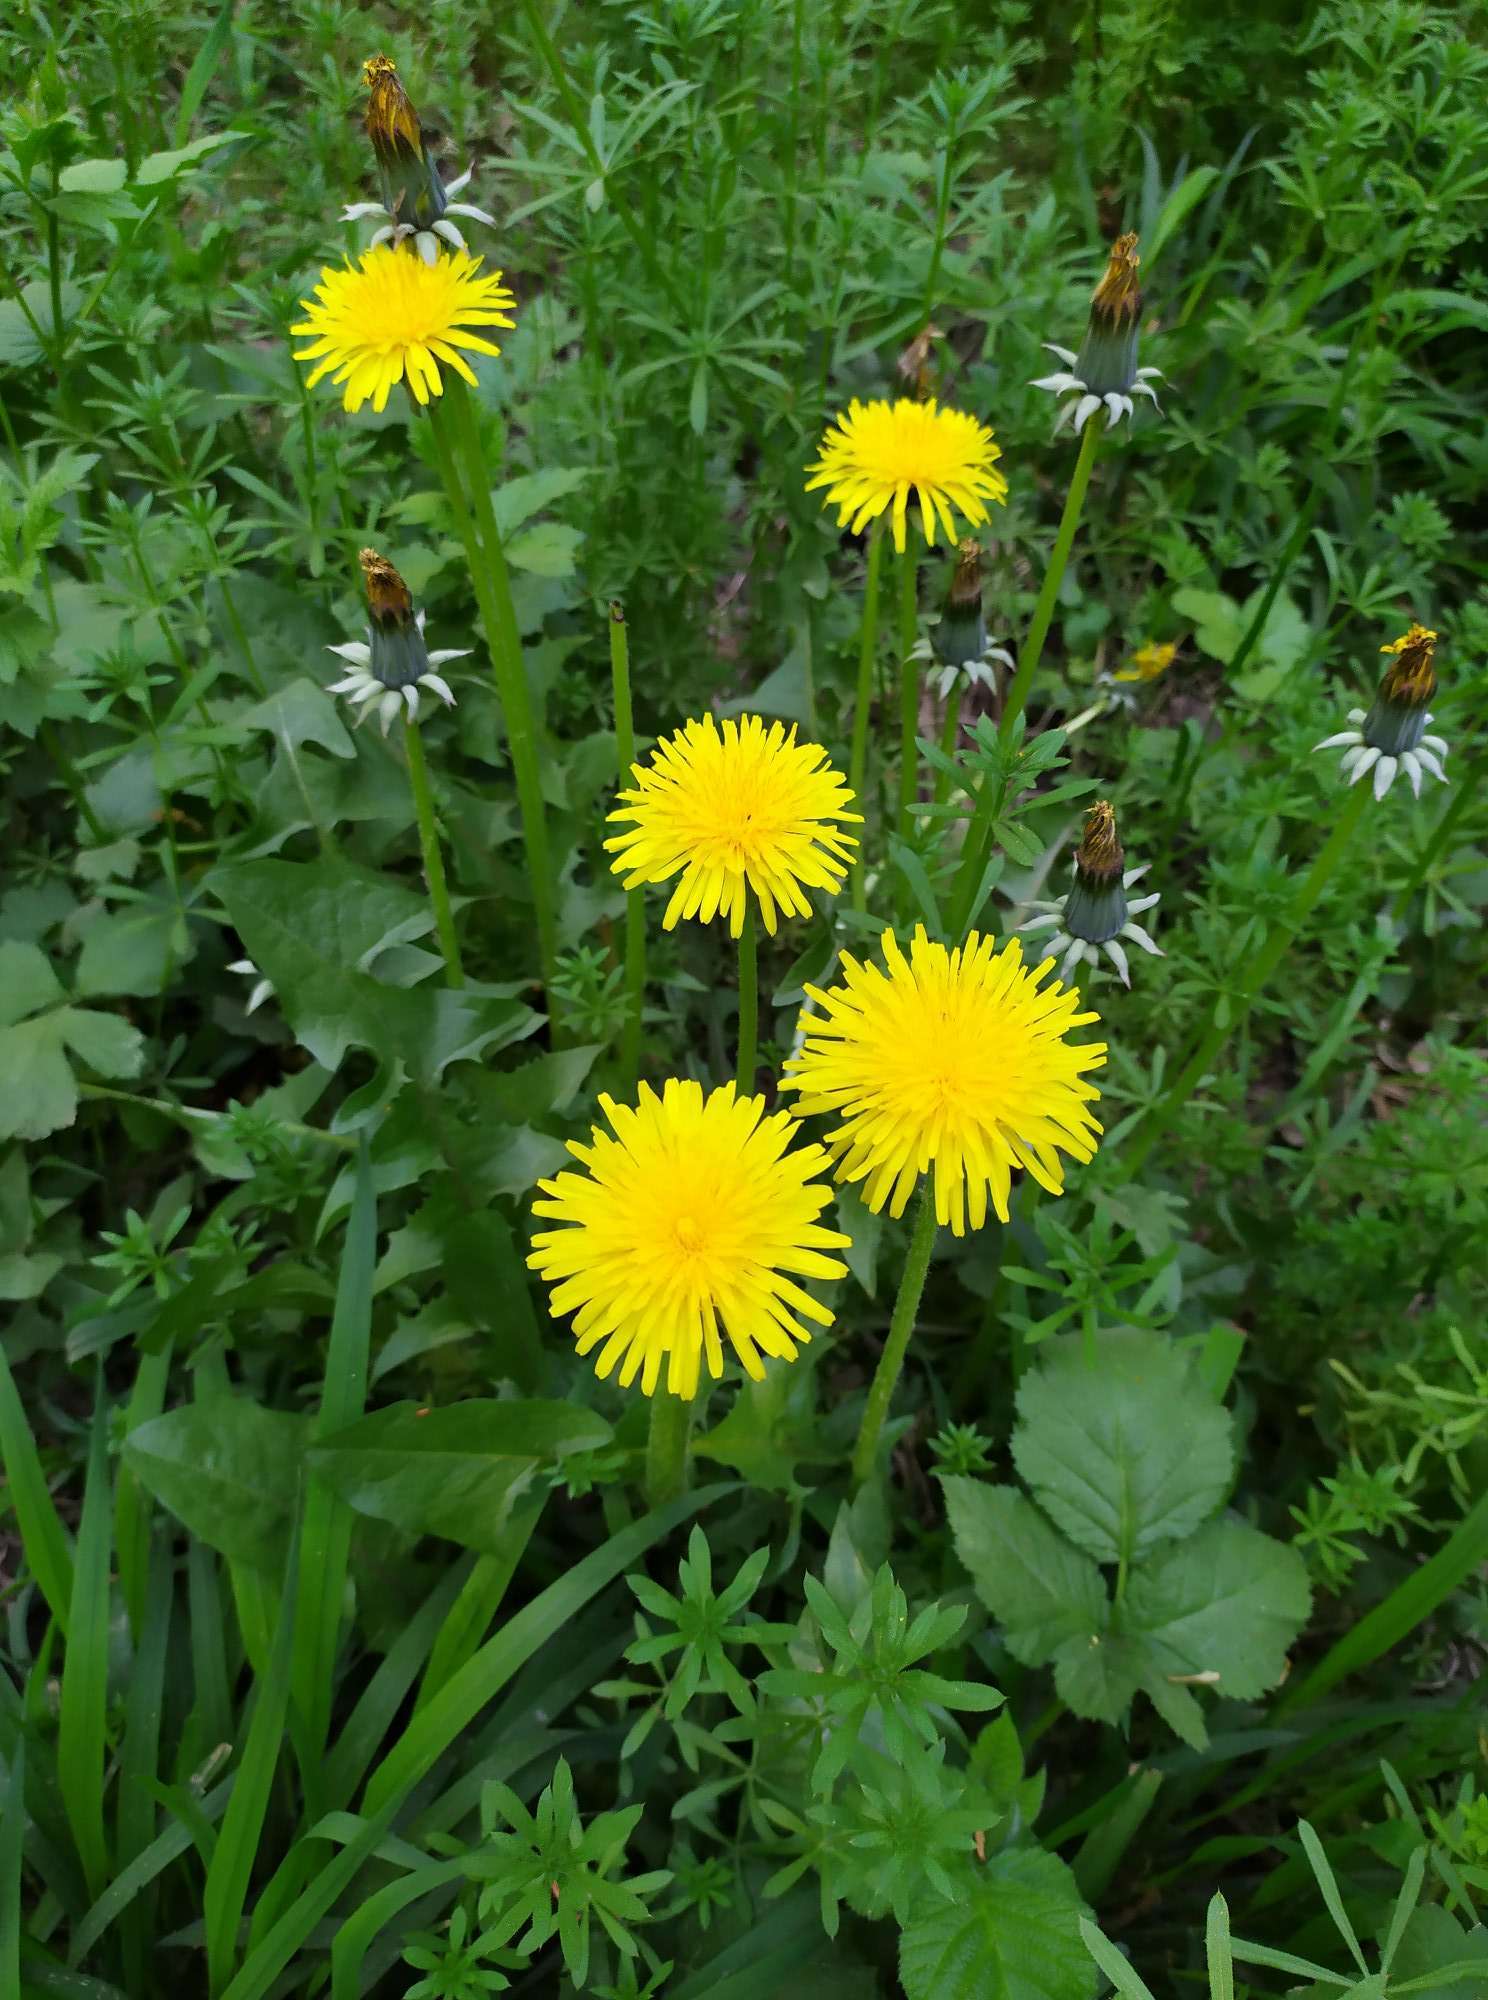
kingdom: Plantae
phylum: Tracheophyta
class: Magnoliopsida
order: Asterales
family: Asteraceae
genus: Taraxacum
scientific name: Taraxacum officinale
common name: Common dandelion
